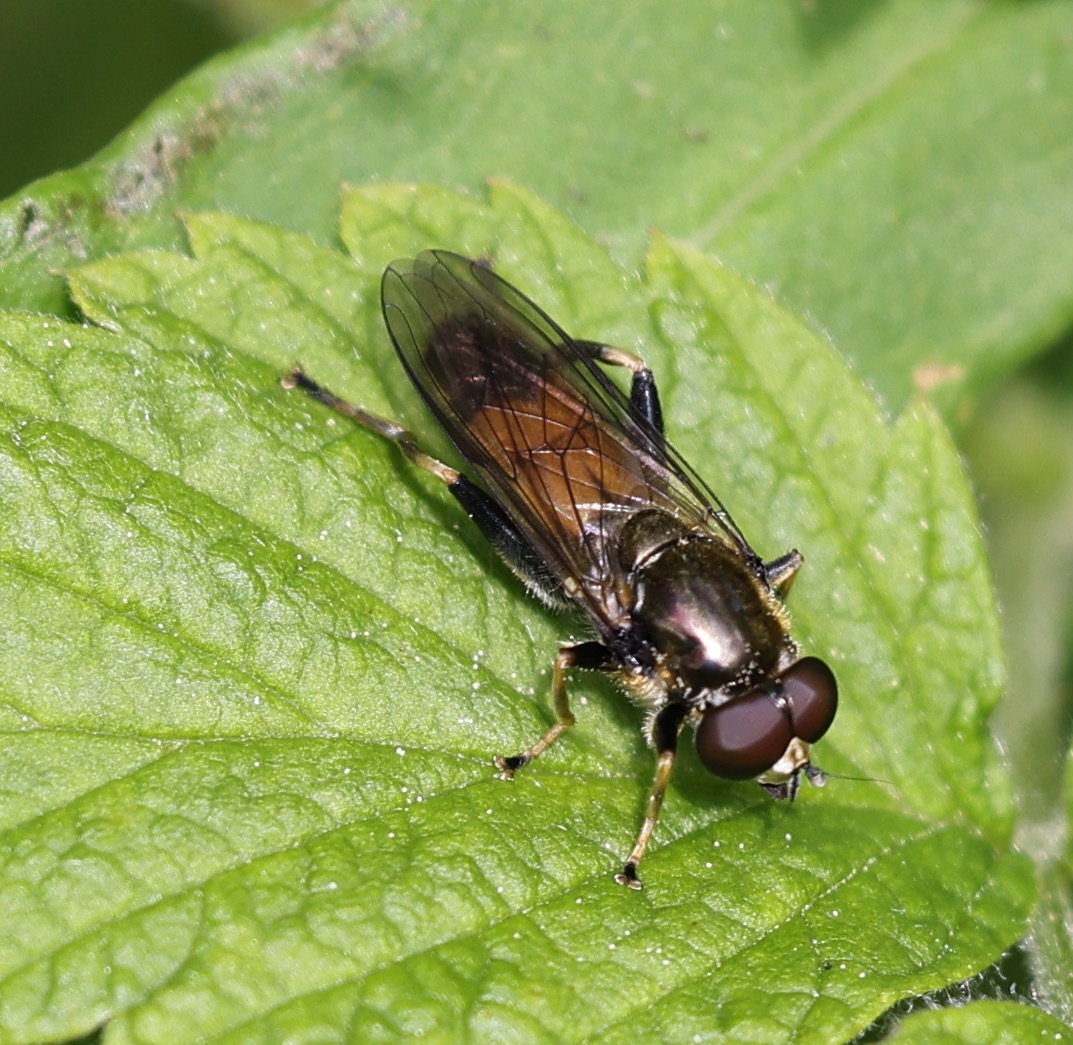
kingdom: Animalia
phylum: Arthropoda
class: Insecta
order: Diptera
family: Syrphidae
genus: Xylota
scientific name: Xylota segnis
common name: Brown-toed forest fly
